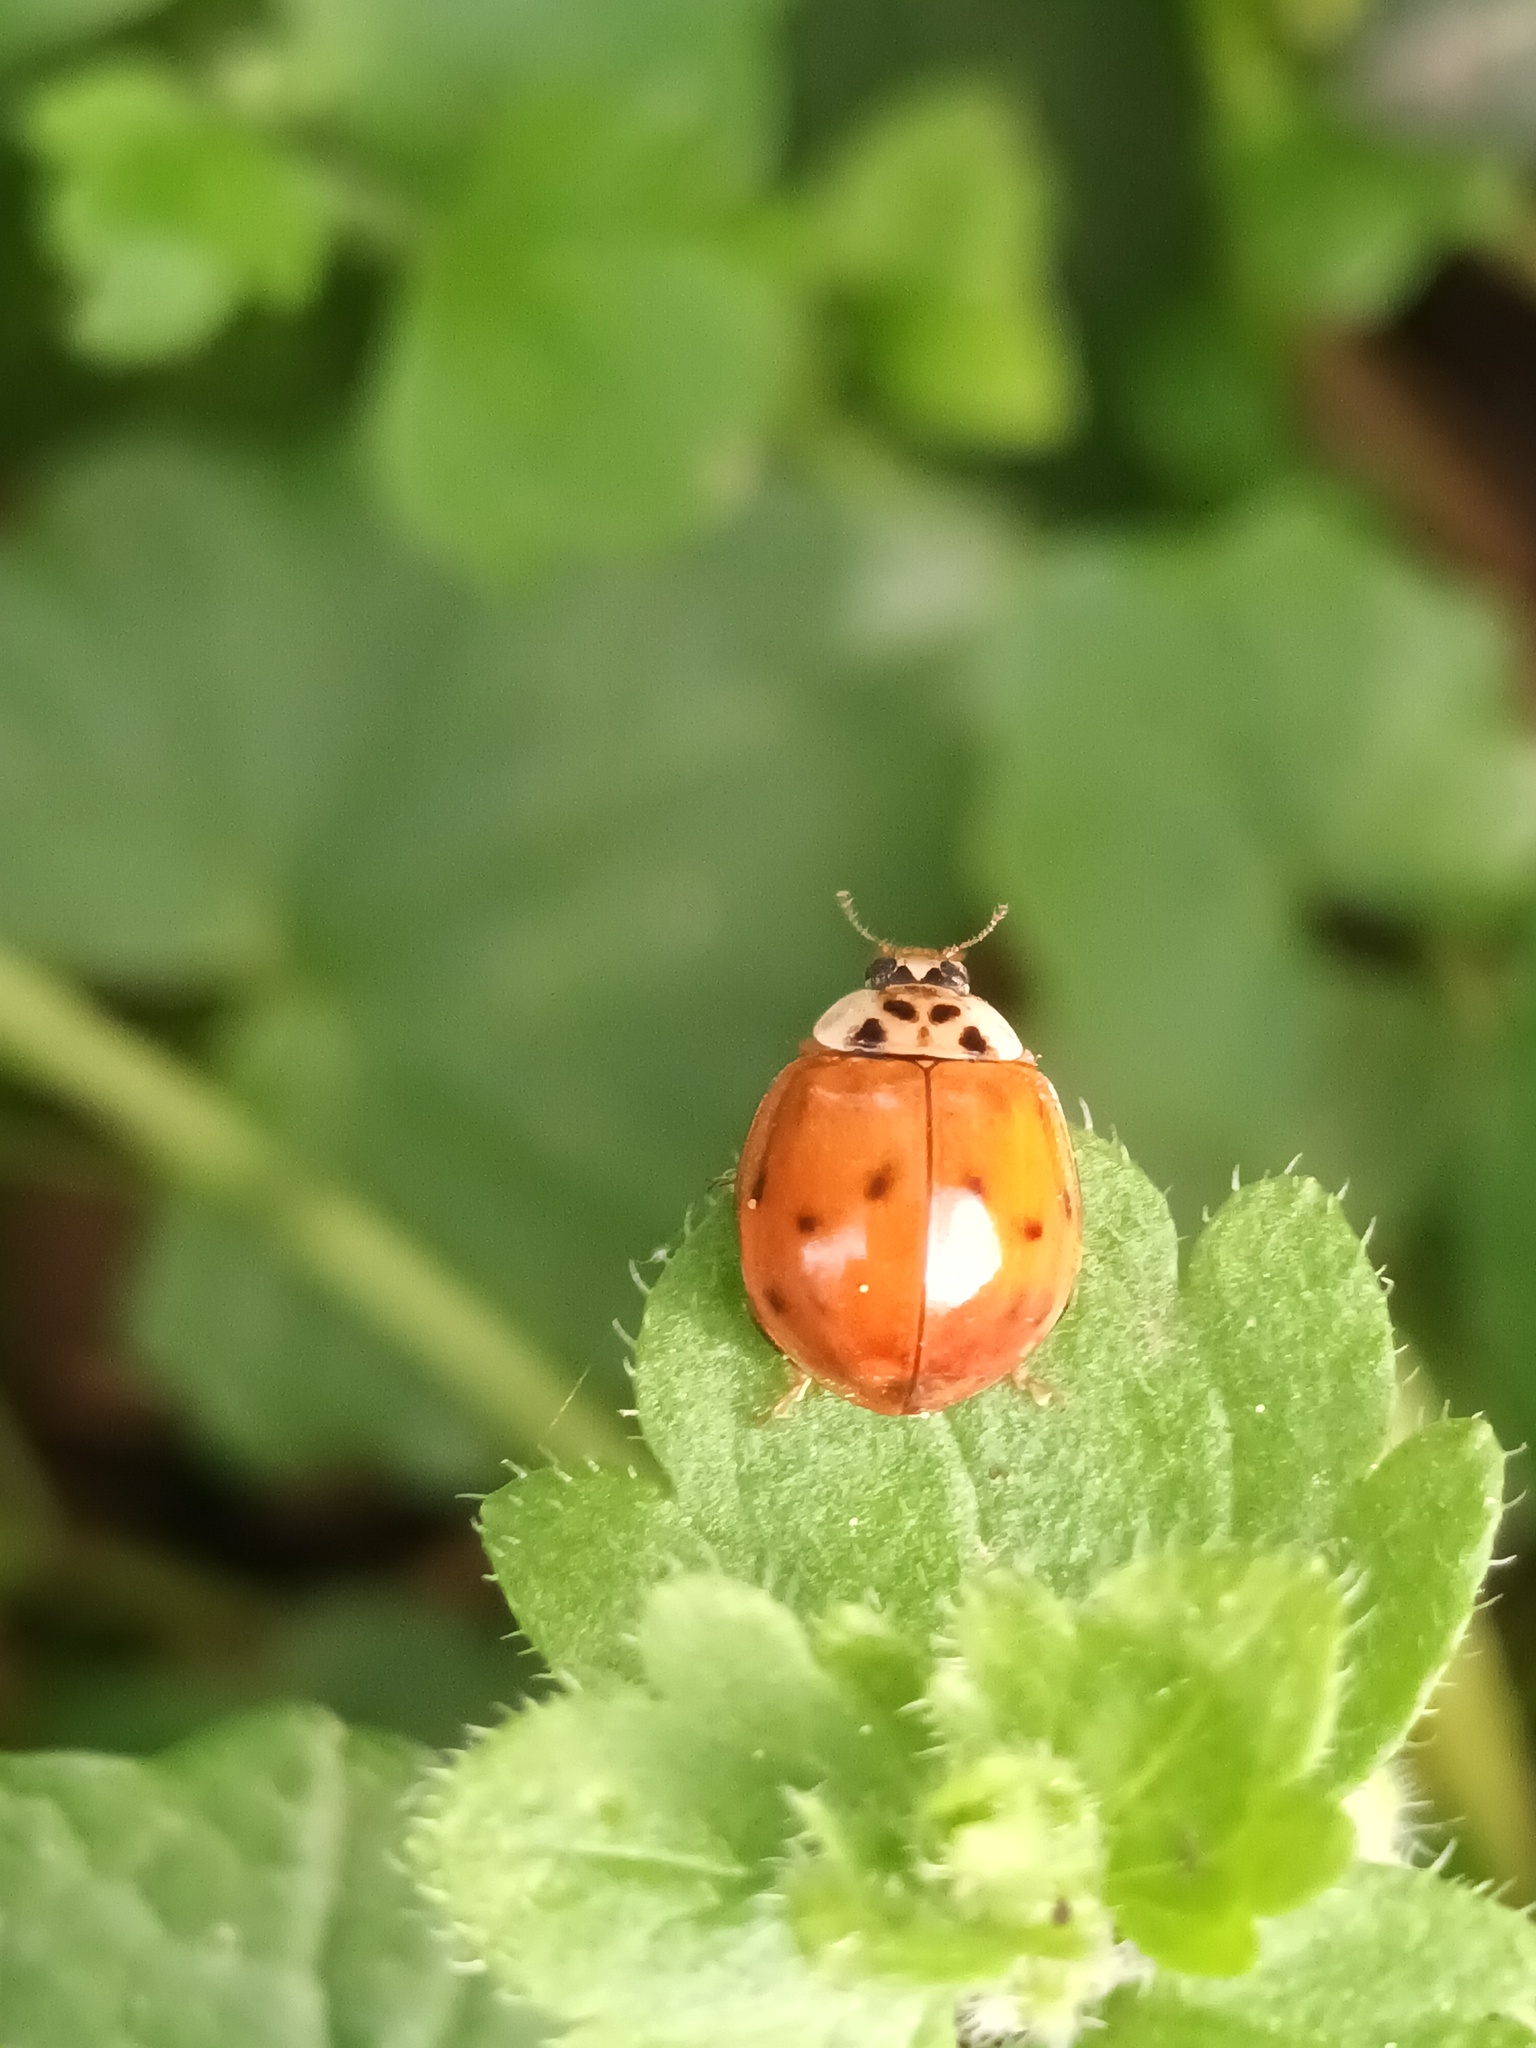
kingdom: Animalia
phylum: Arthropoda
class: Insecta
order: Coleoptera
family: Coccinellidae
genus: Harmonia
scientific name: Harmonia axyridis
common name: Harlequin ladybird
